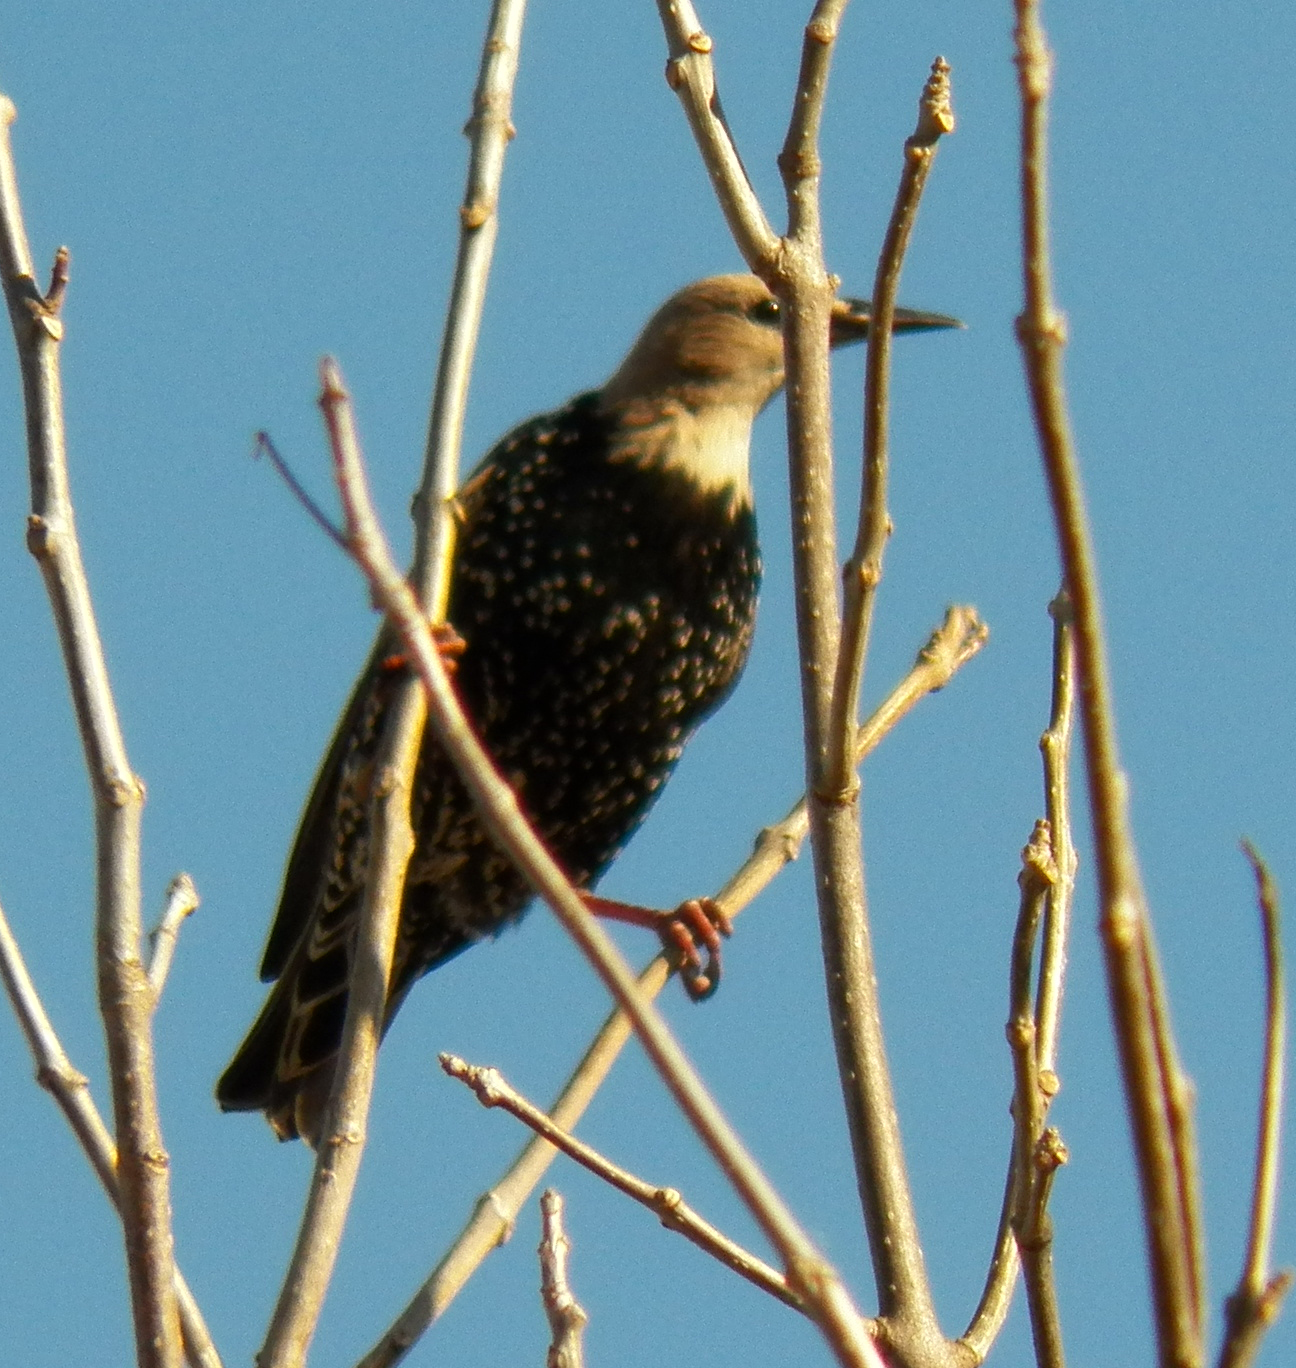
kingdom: Animalia
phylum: Chordata
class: Aves
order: Passeriformes
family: Sturnidae
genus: Sturnus
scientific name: Sturnus vulgaris
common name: Common starling
